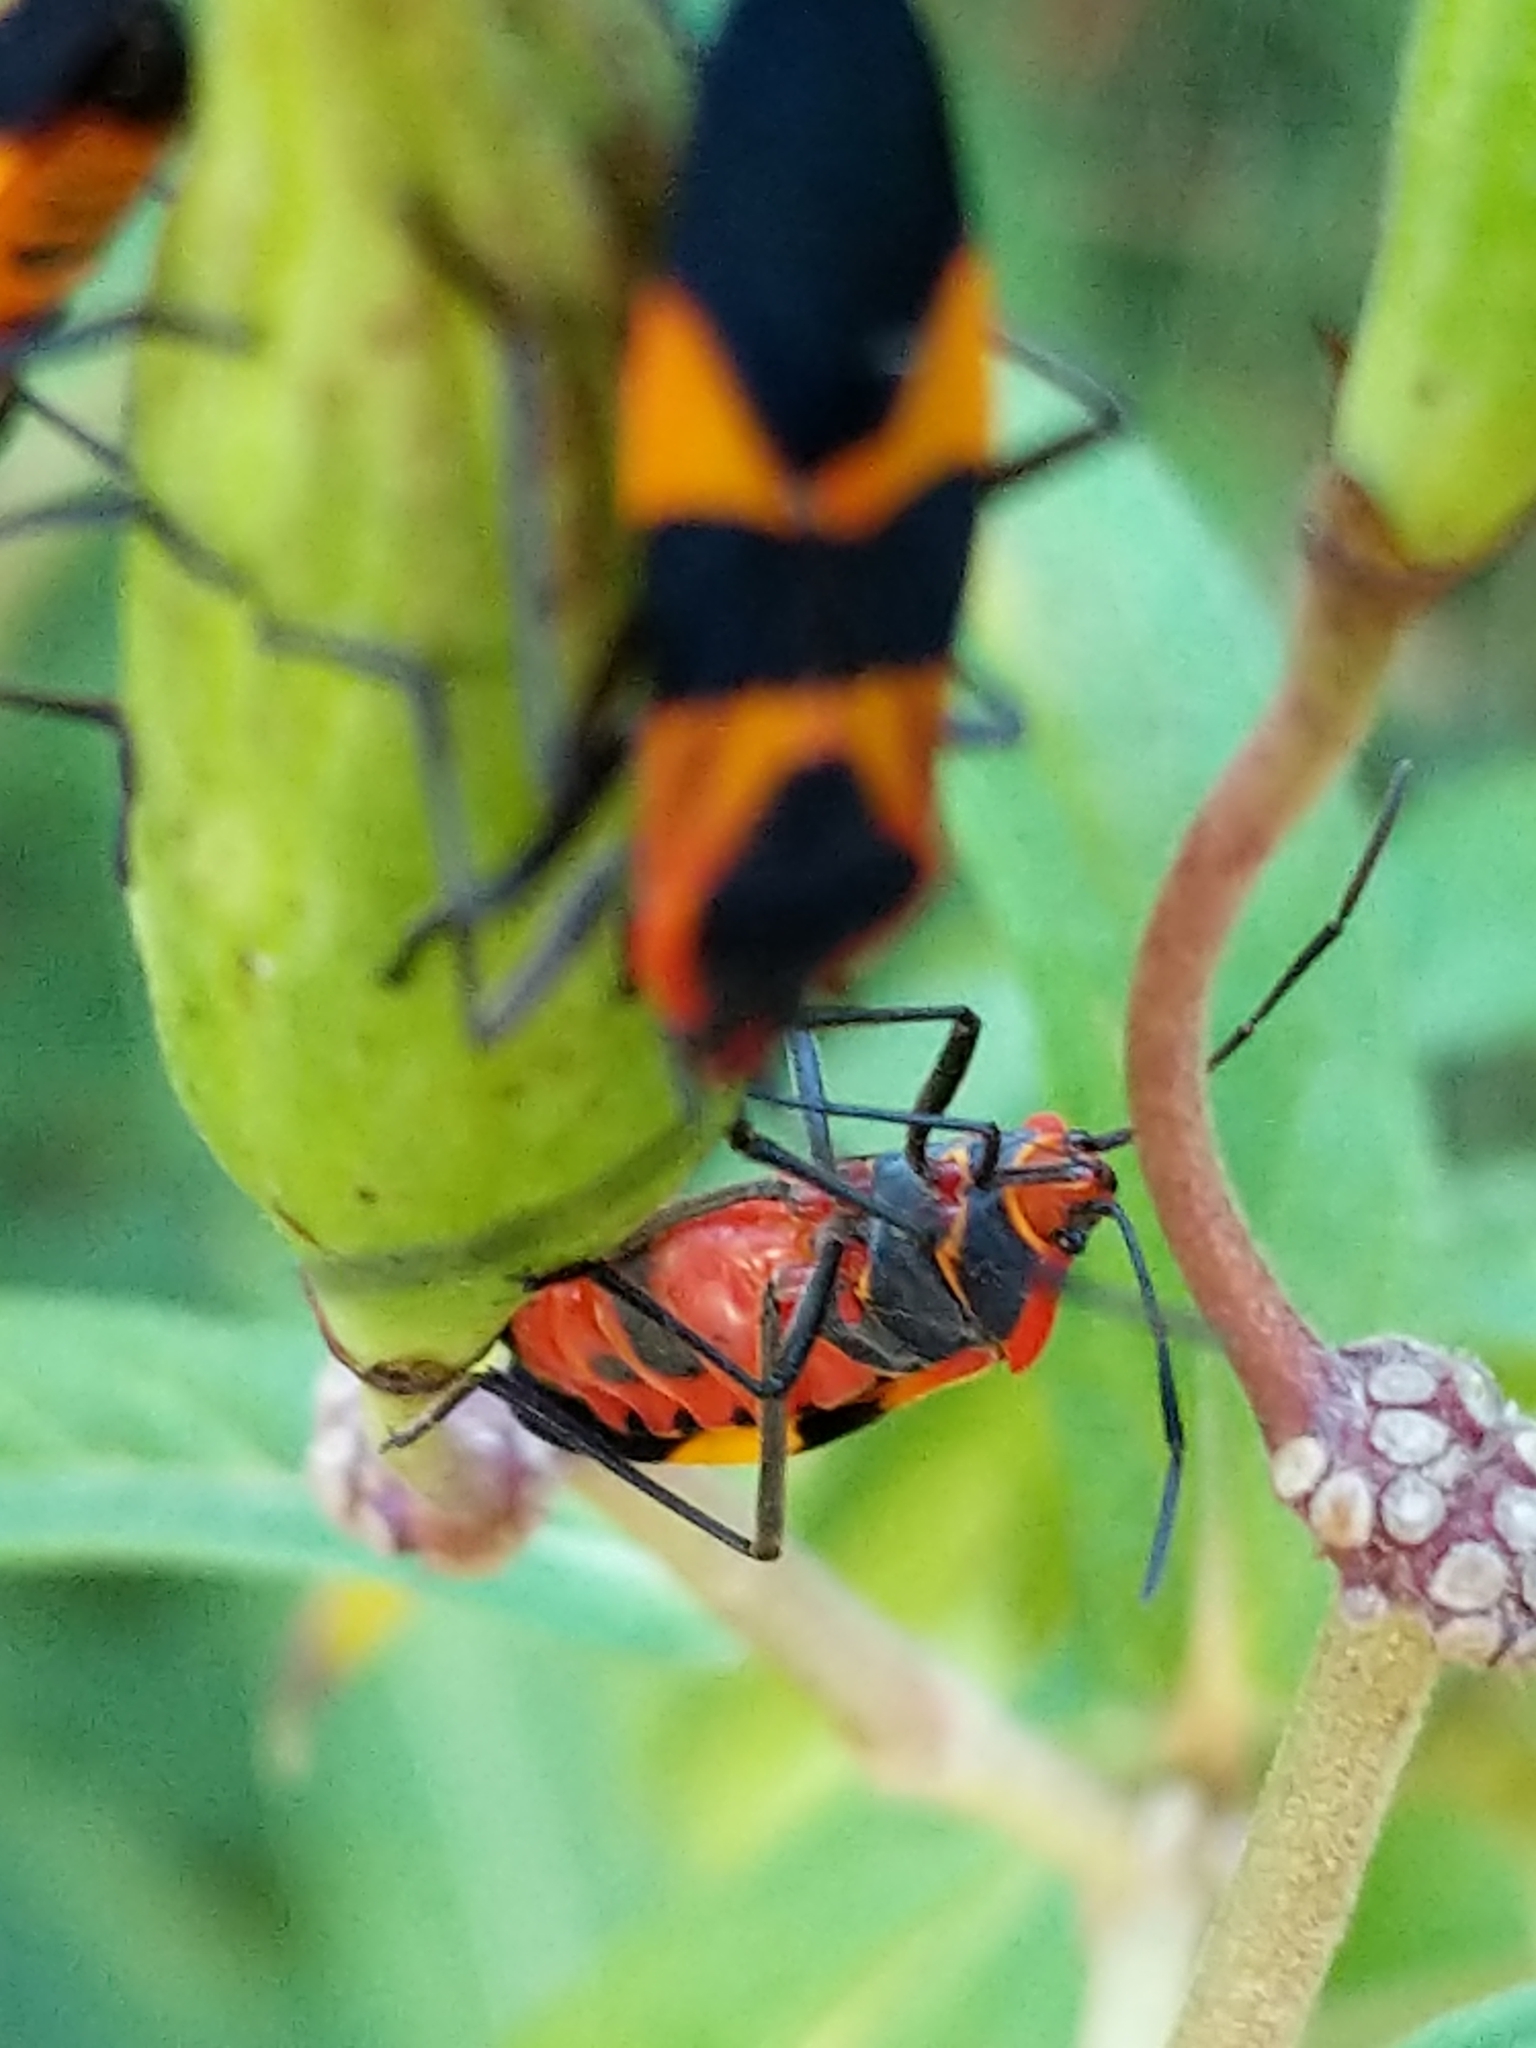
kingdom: Animalia
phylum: Arthropoda
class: Insecta
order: Hemiptera
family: Lygaeidae
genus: Oncopeltus
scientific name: Oncopeltus fasciatus
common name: Large milkweed bug
